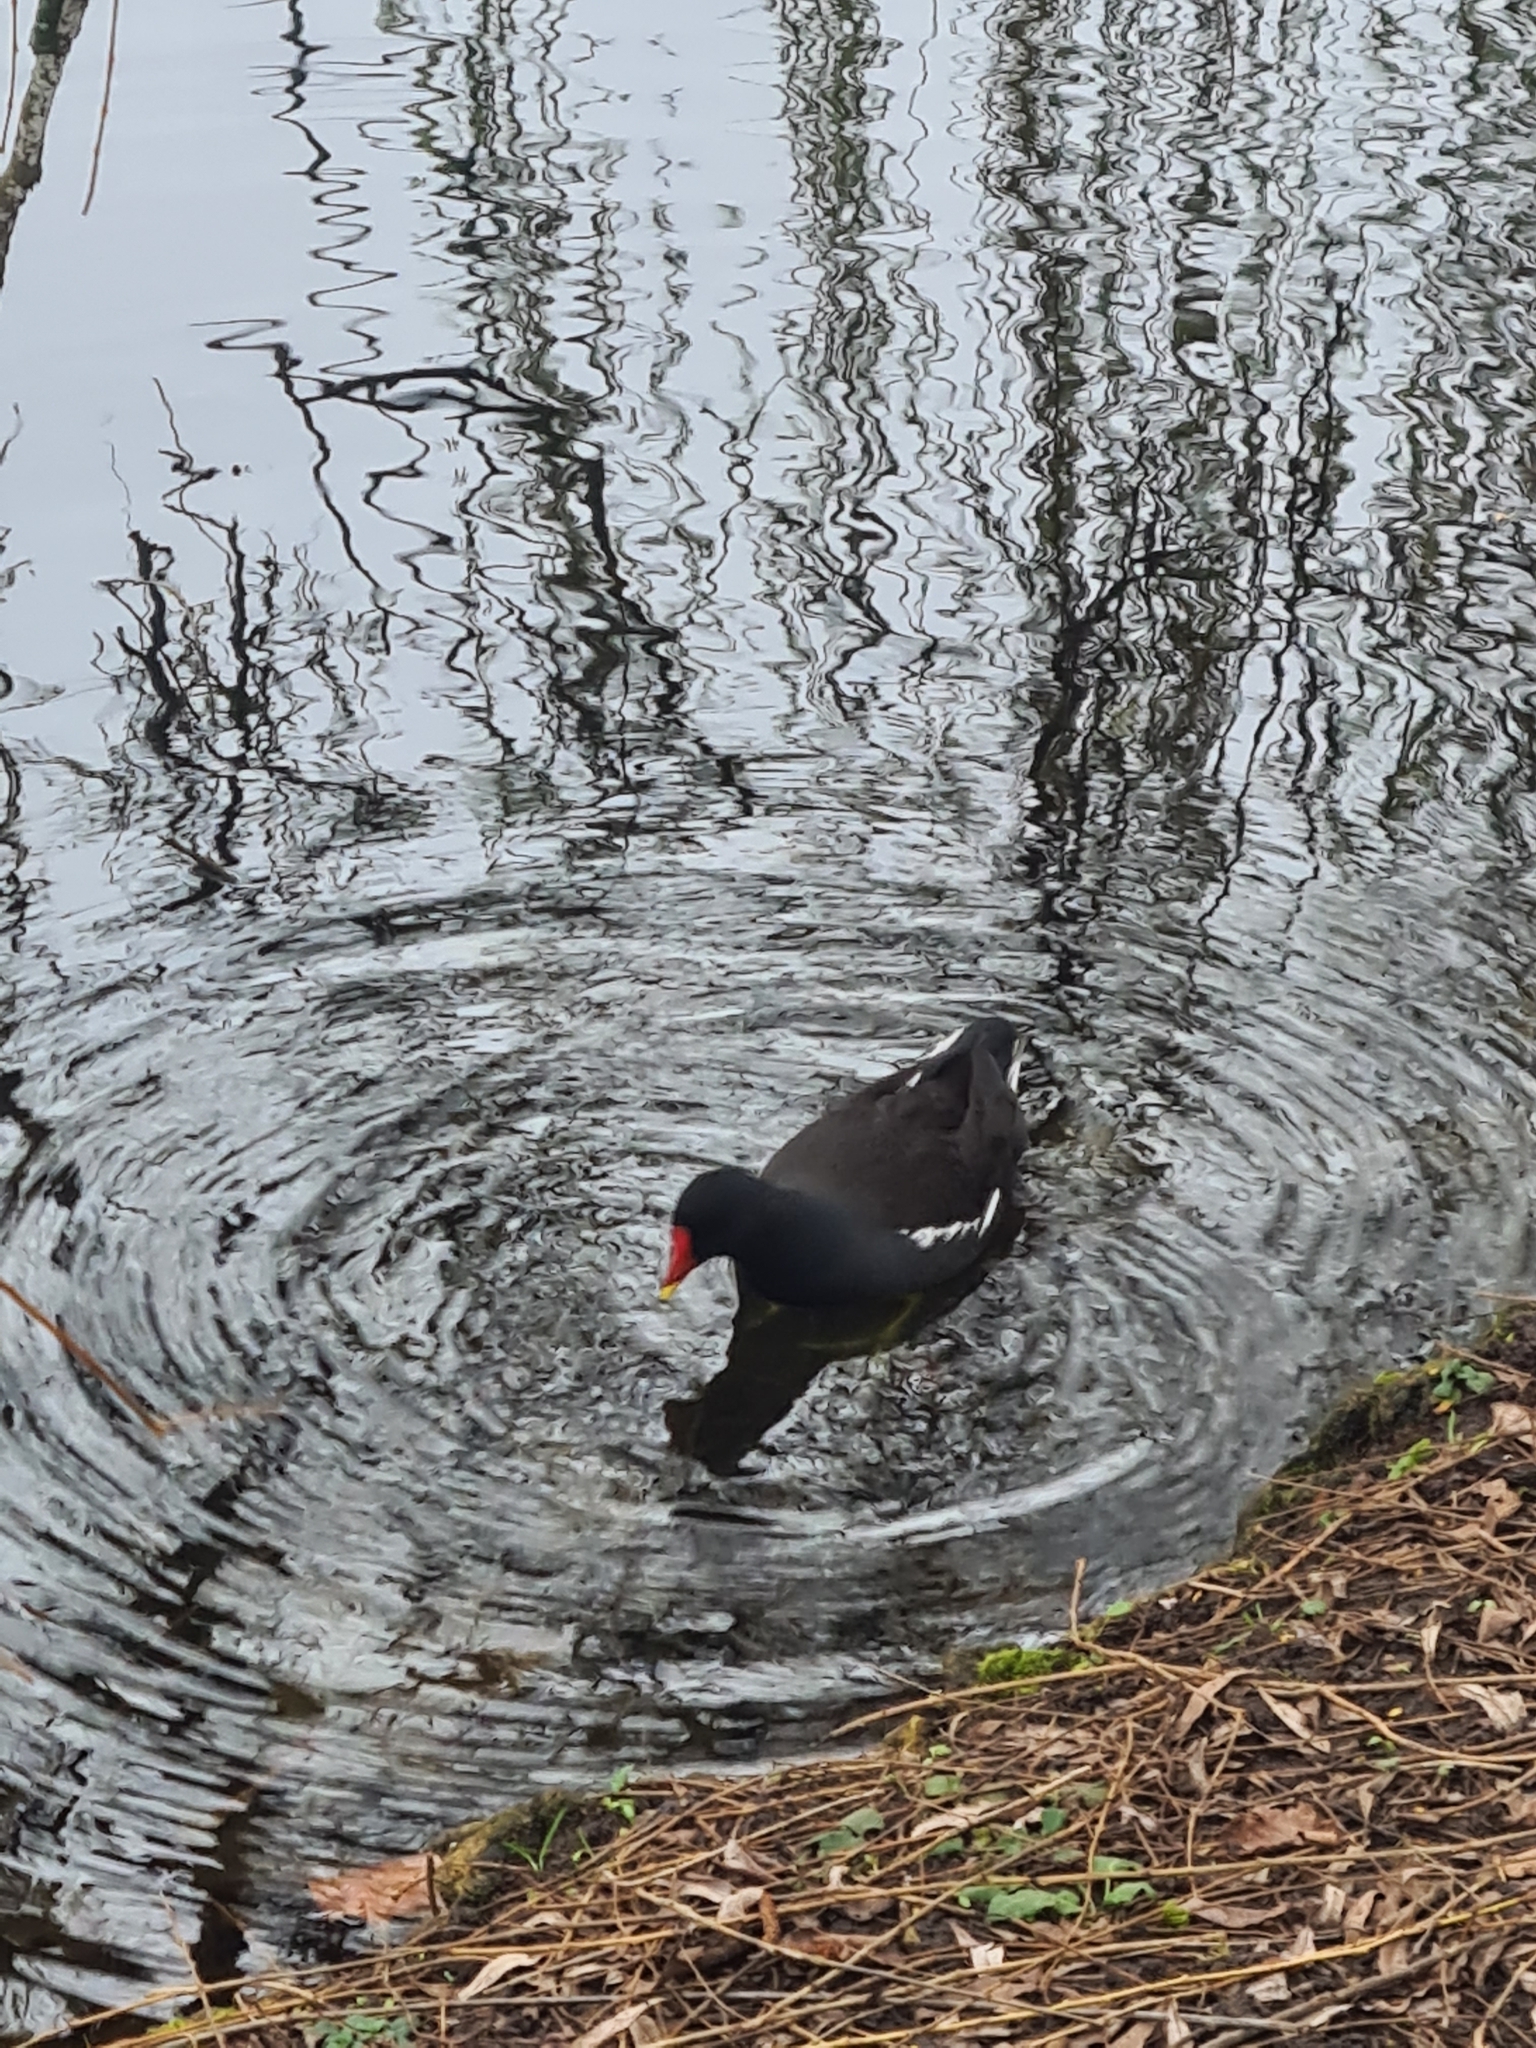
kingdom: Animalia
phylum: Chordata
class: Aves
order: Gruiformes
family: Rallidae
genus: Gallinula
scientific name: Gallinula chloropus
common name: Common moorhen
